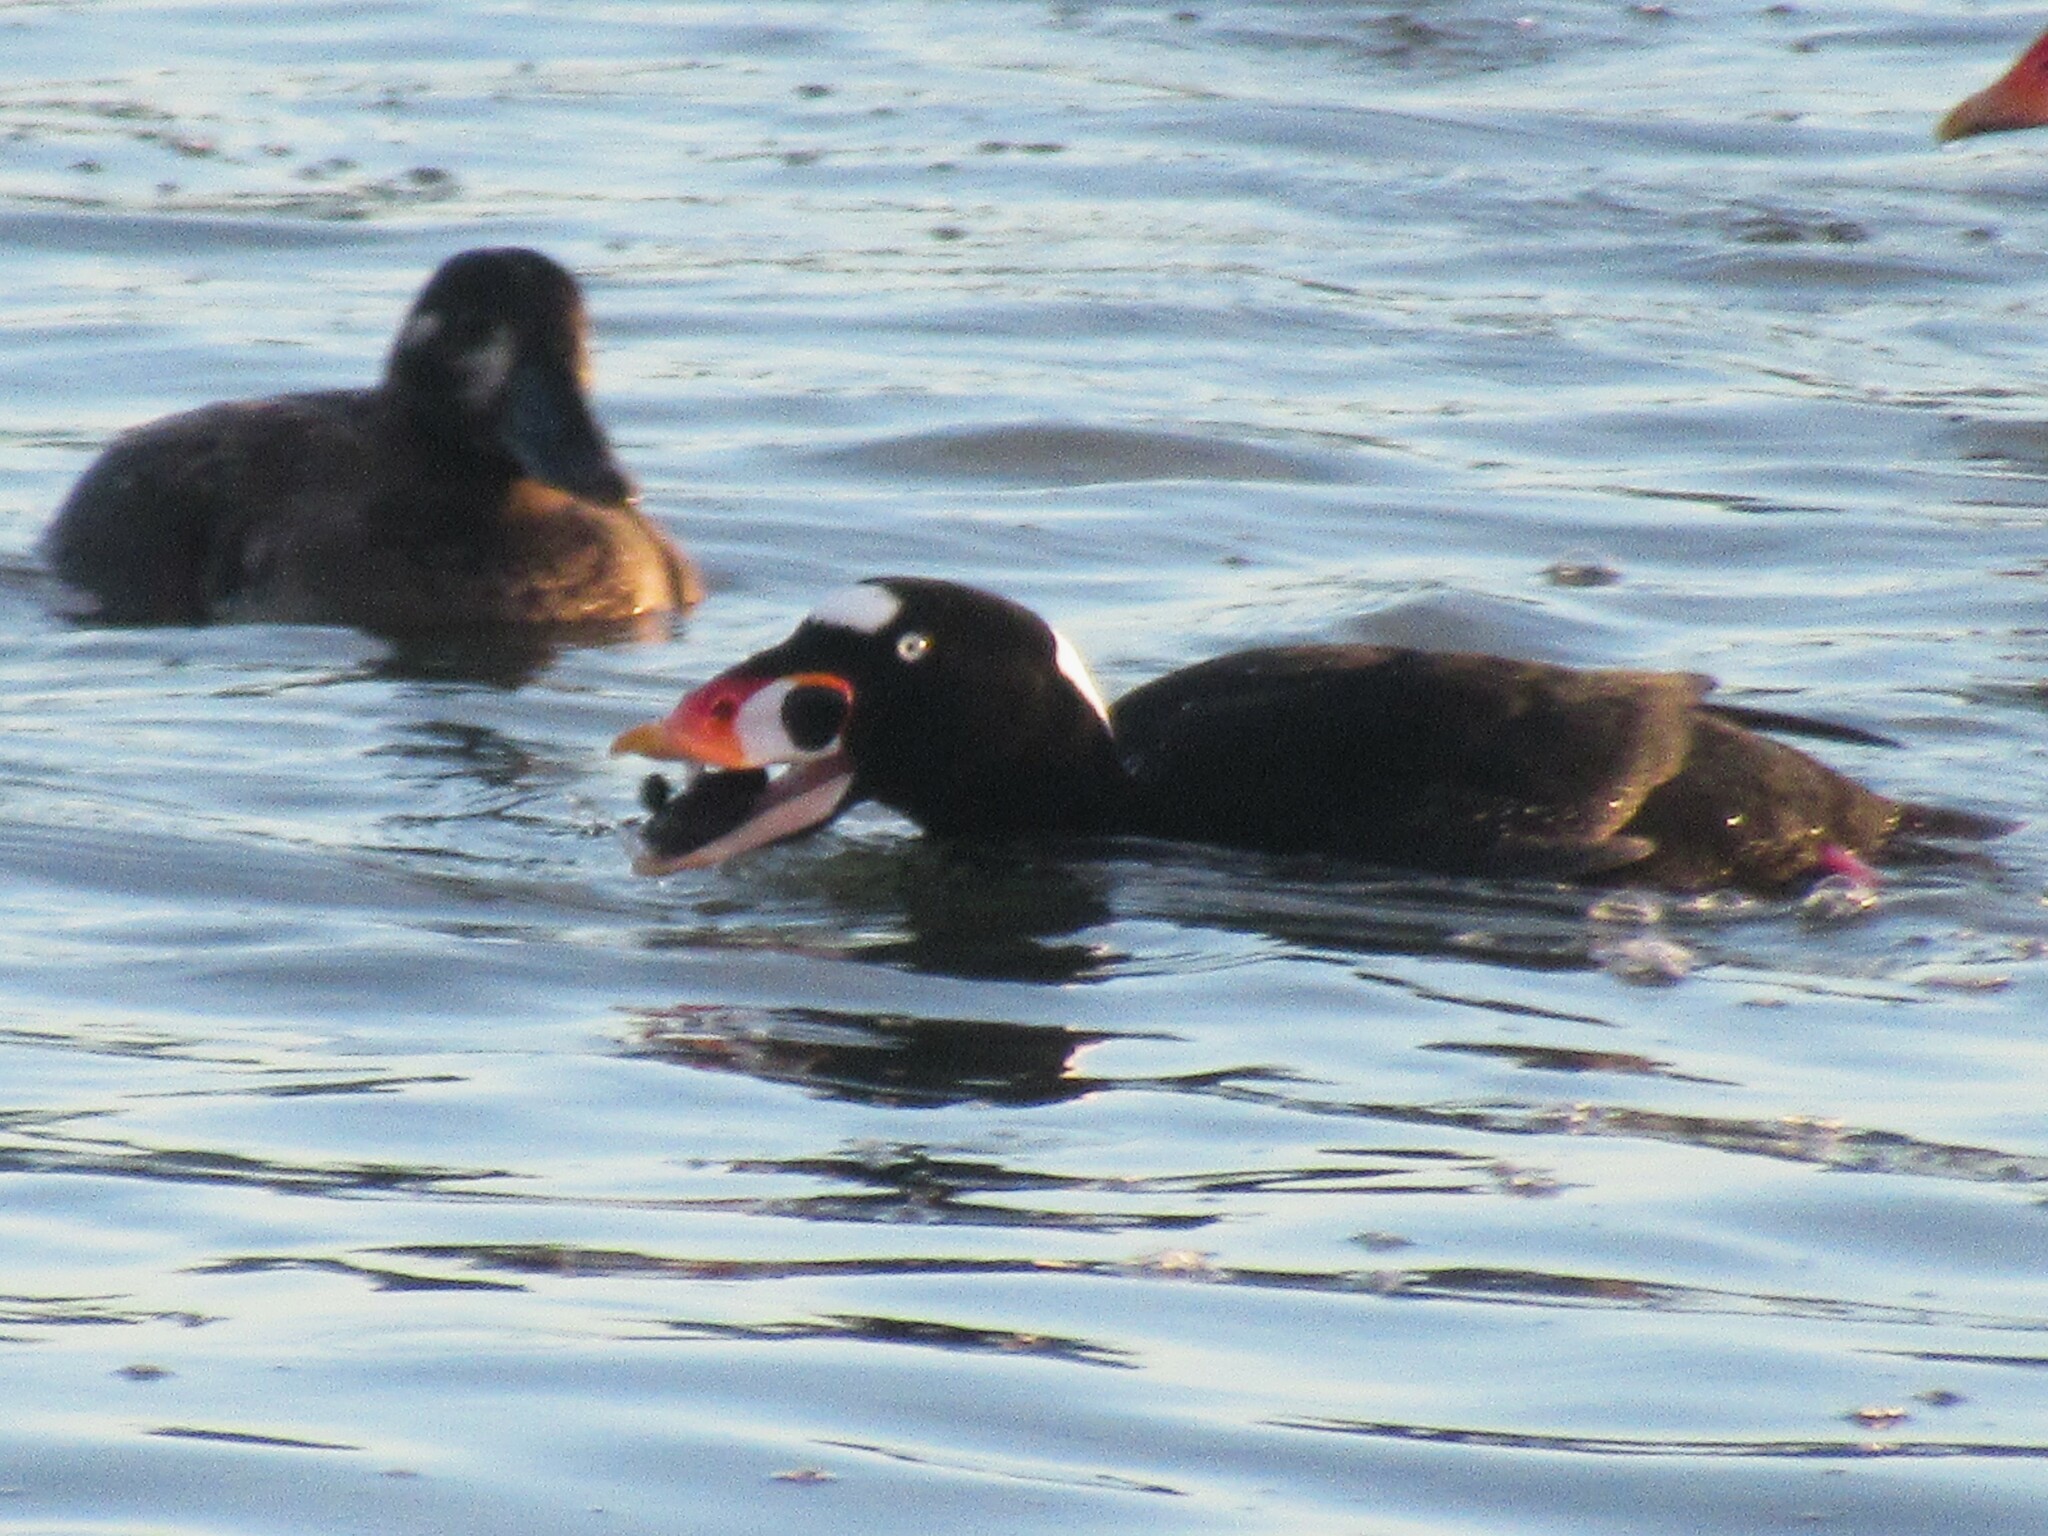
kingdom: Animalia
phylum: Chordata
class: Aves
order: Anseriformes
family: Anatidae
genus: Melanitta
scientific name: Melanitta perspicillata
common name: Surf scoter
